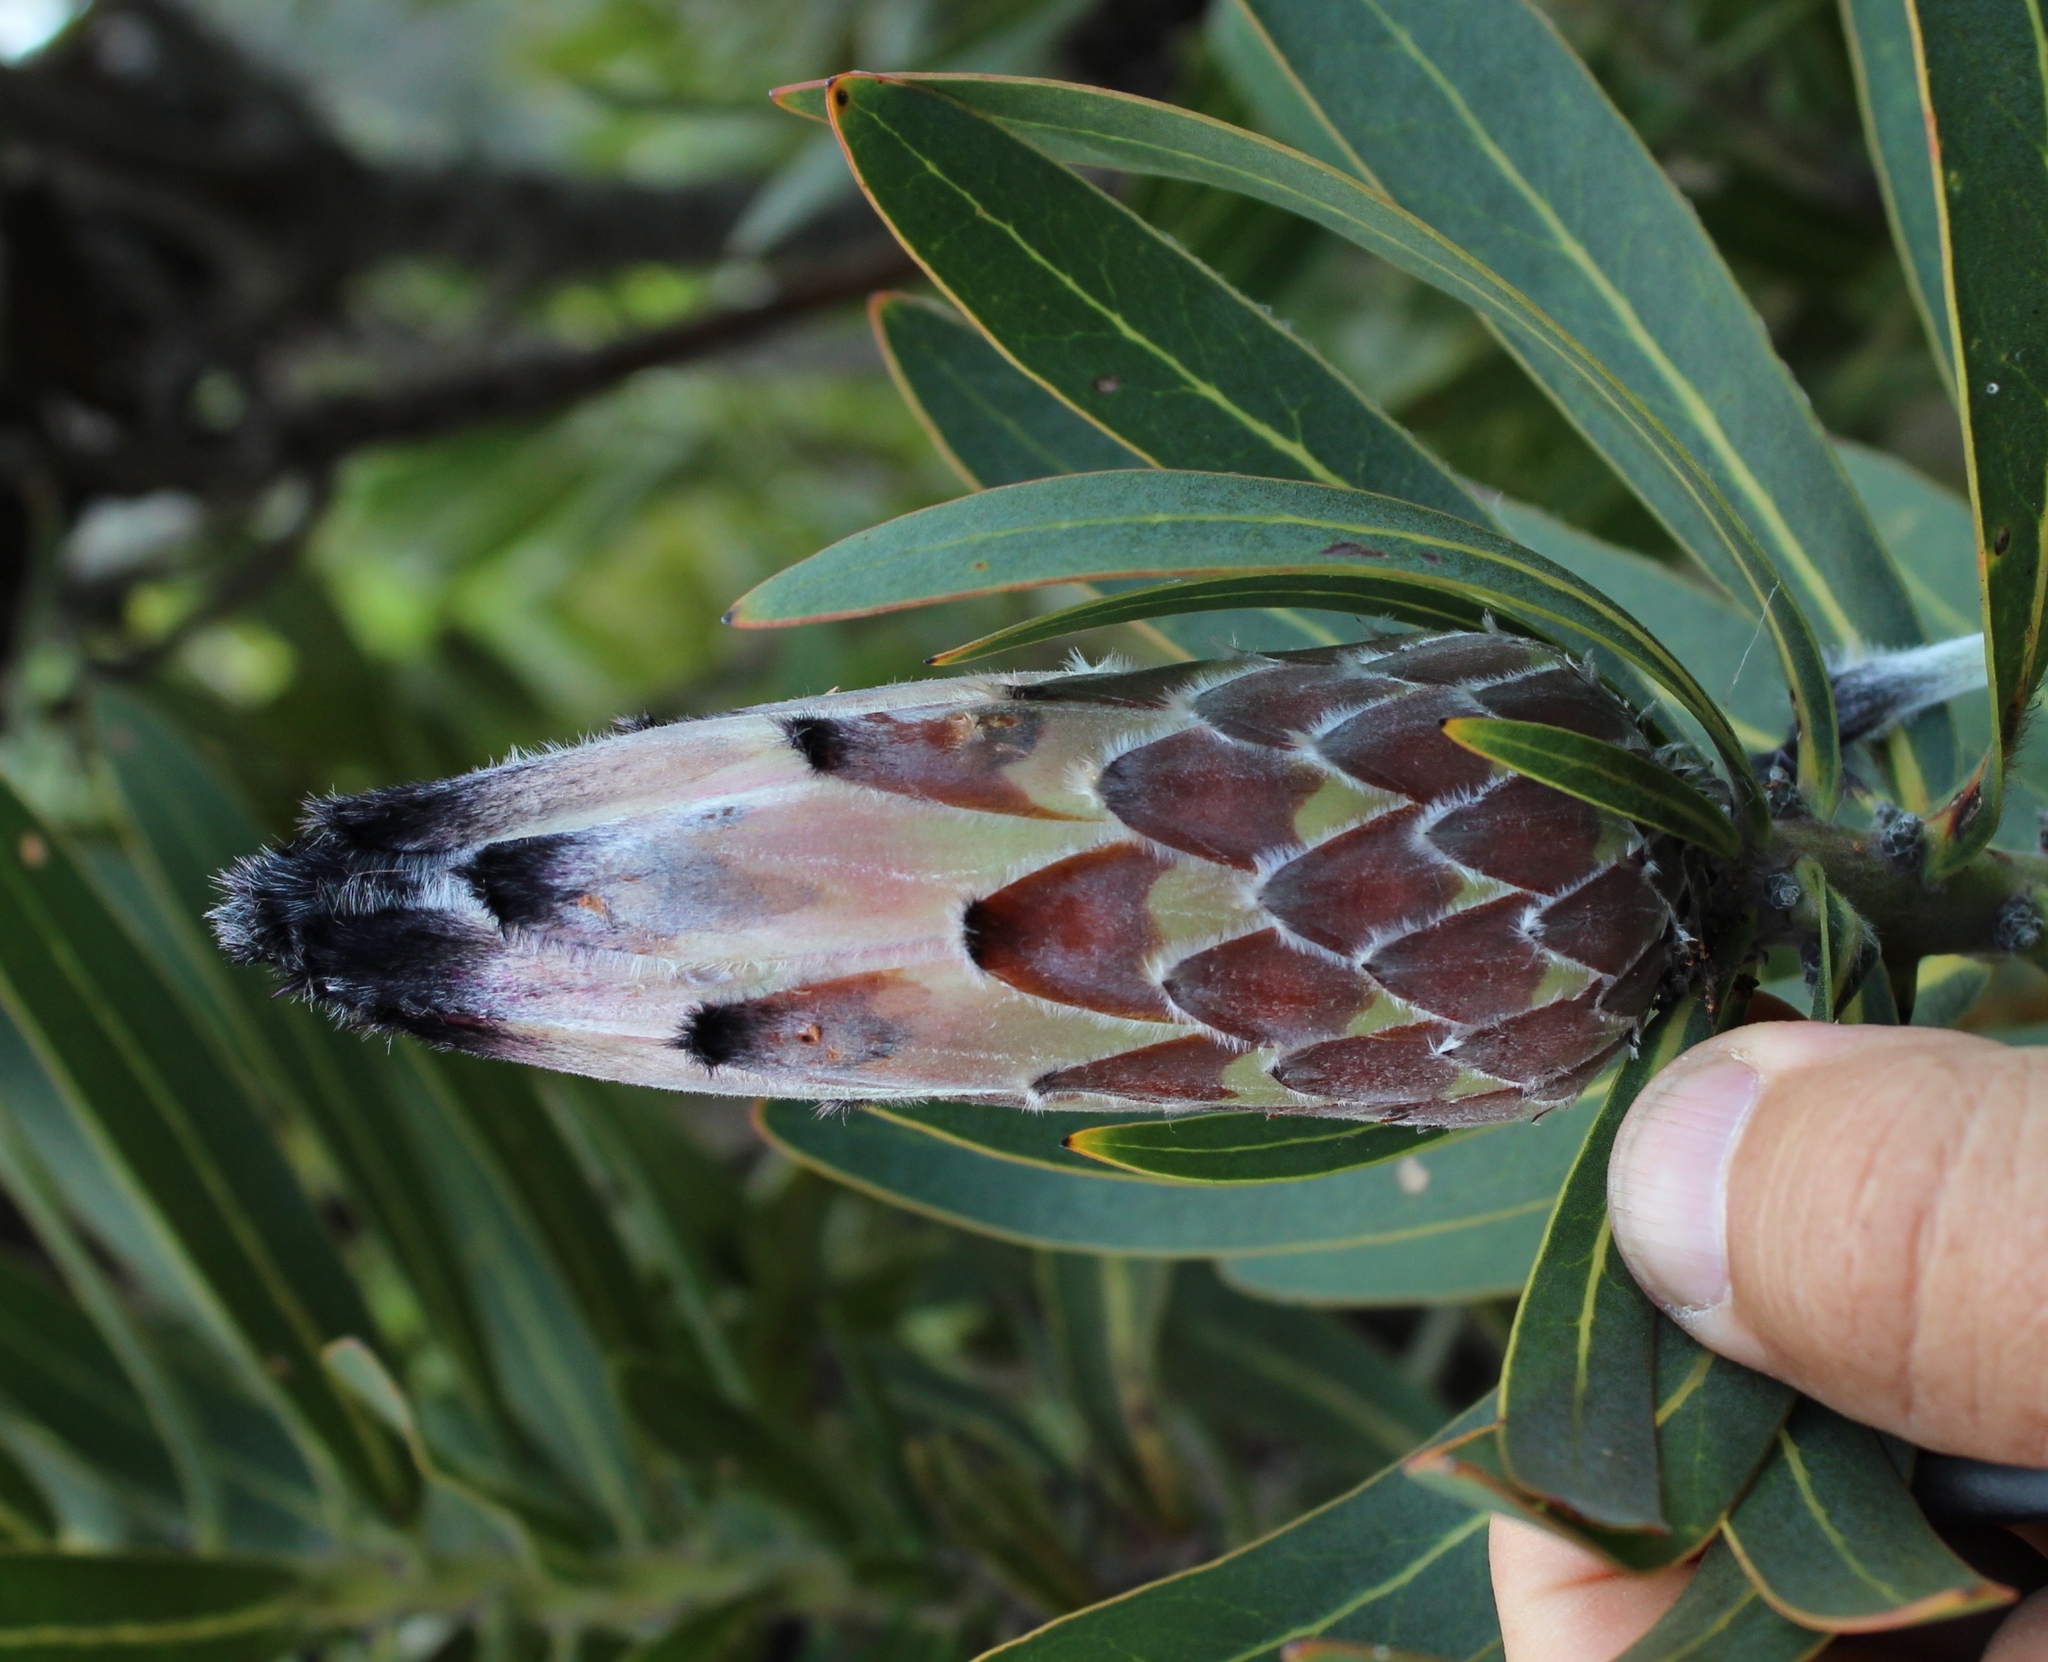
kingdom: Plantae
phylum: Tracheophyta
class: Magnoliopsida
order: Proteales
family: Proteaceae
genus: Protea
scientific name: Protea
